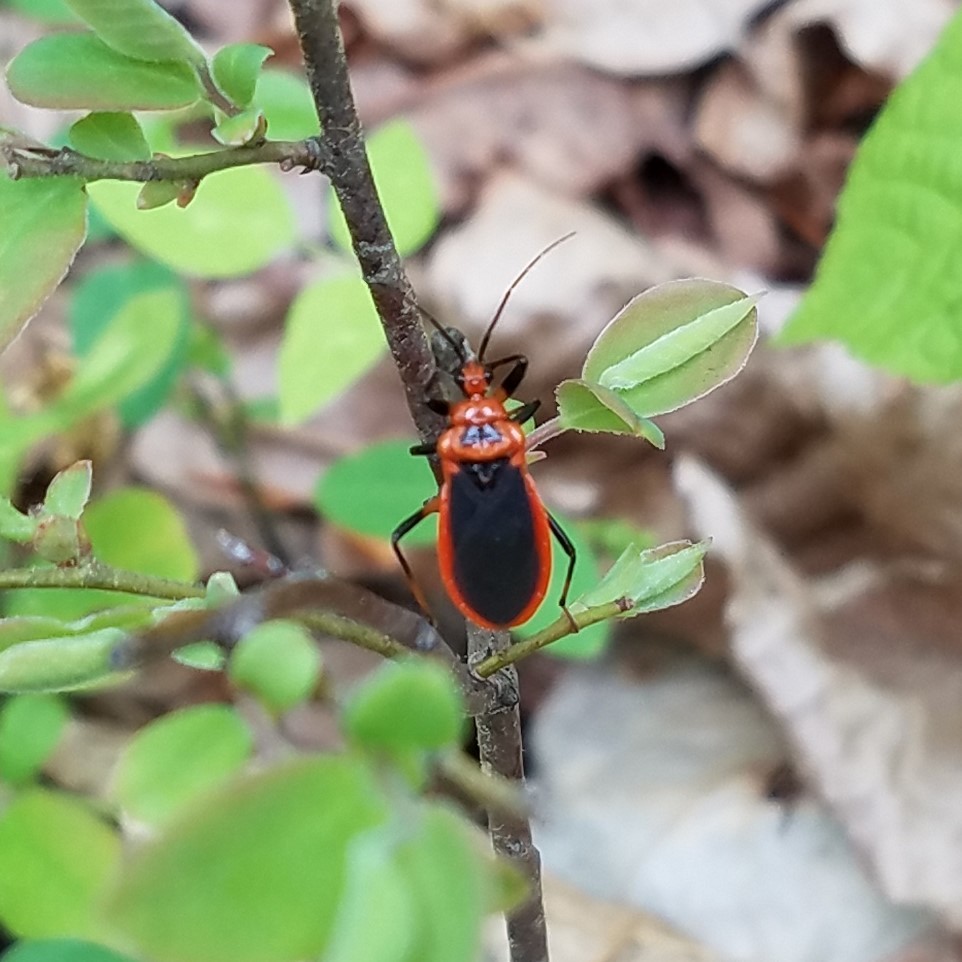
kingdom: Animalia
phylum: Arthropoda
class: Insecta
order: Hemiptera
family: Reduviidae
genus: Rhiginia
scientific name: Rhiginia cruciata
